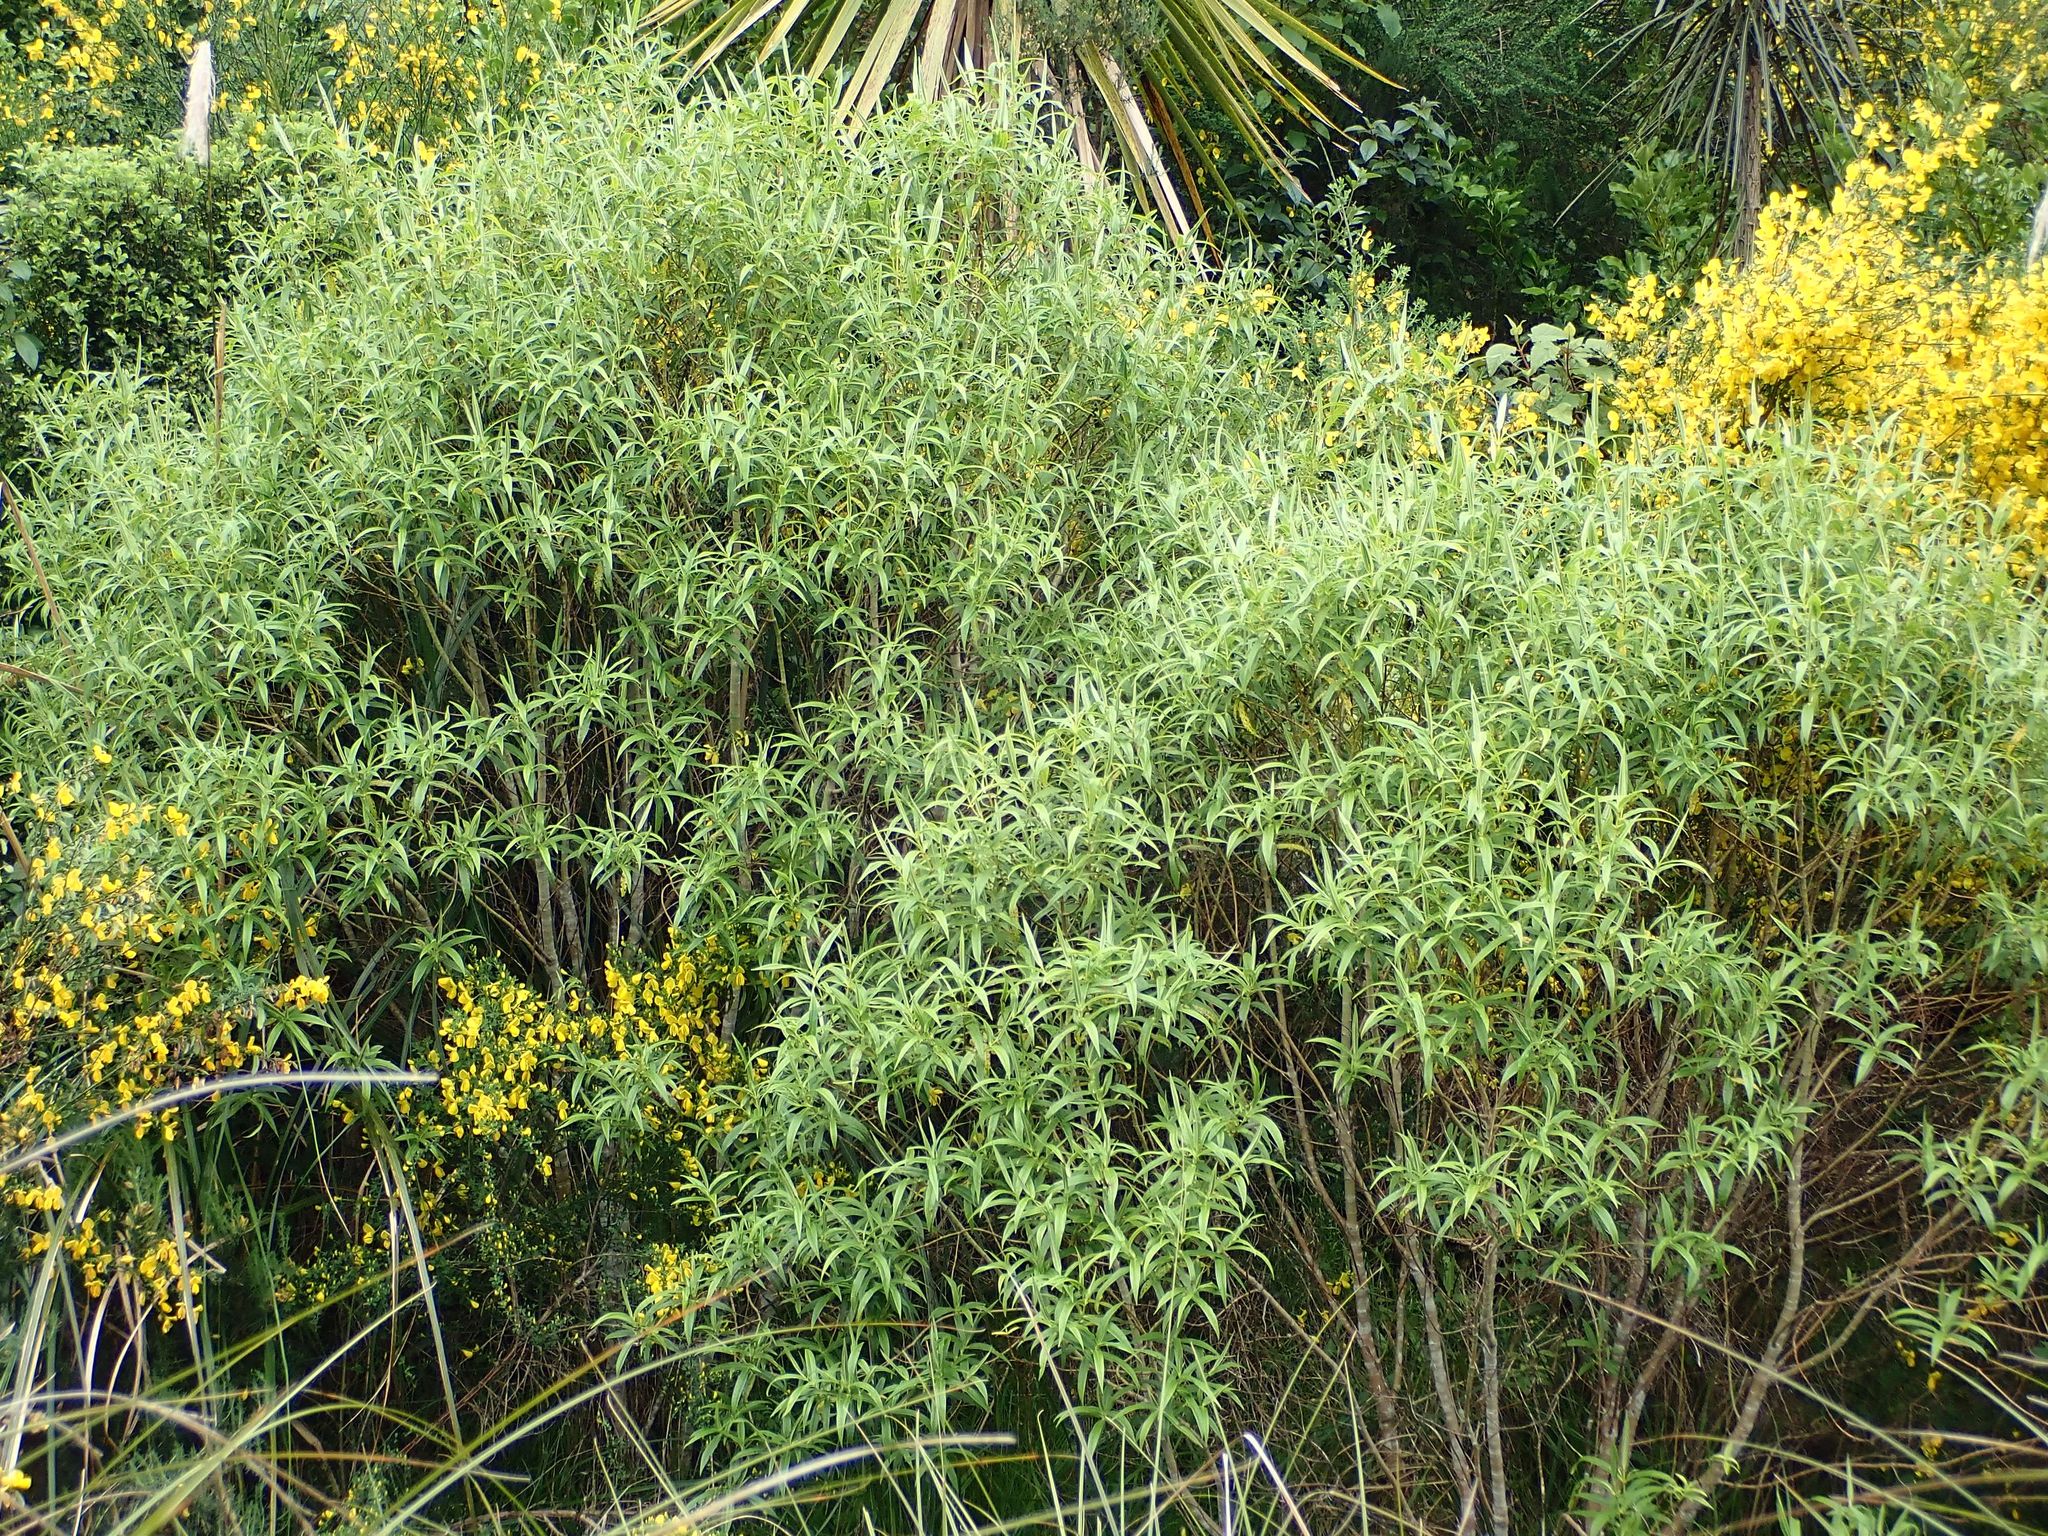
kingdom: Plantae
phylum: Tracheophyta
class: Magnoliopsida
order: Lamiales
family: Plantaginaceae
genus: Veronica
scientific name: Veronica salicifolia
